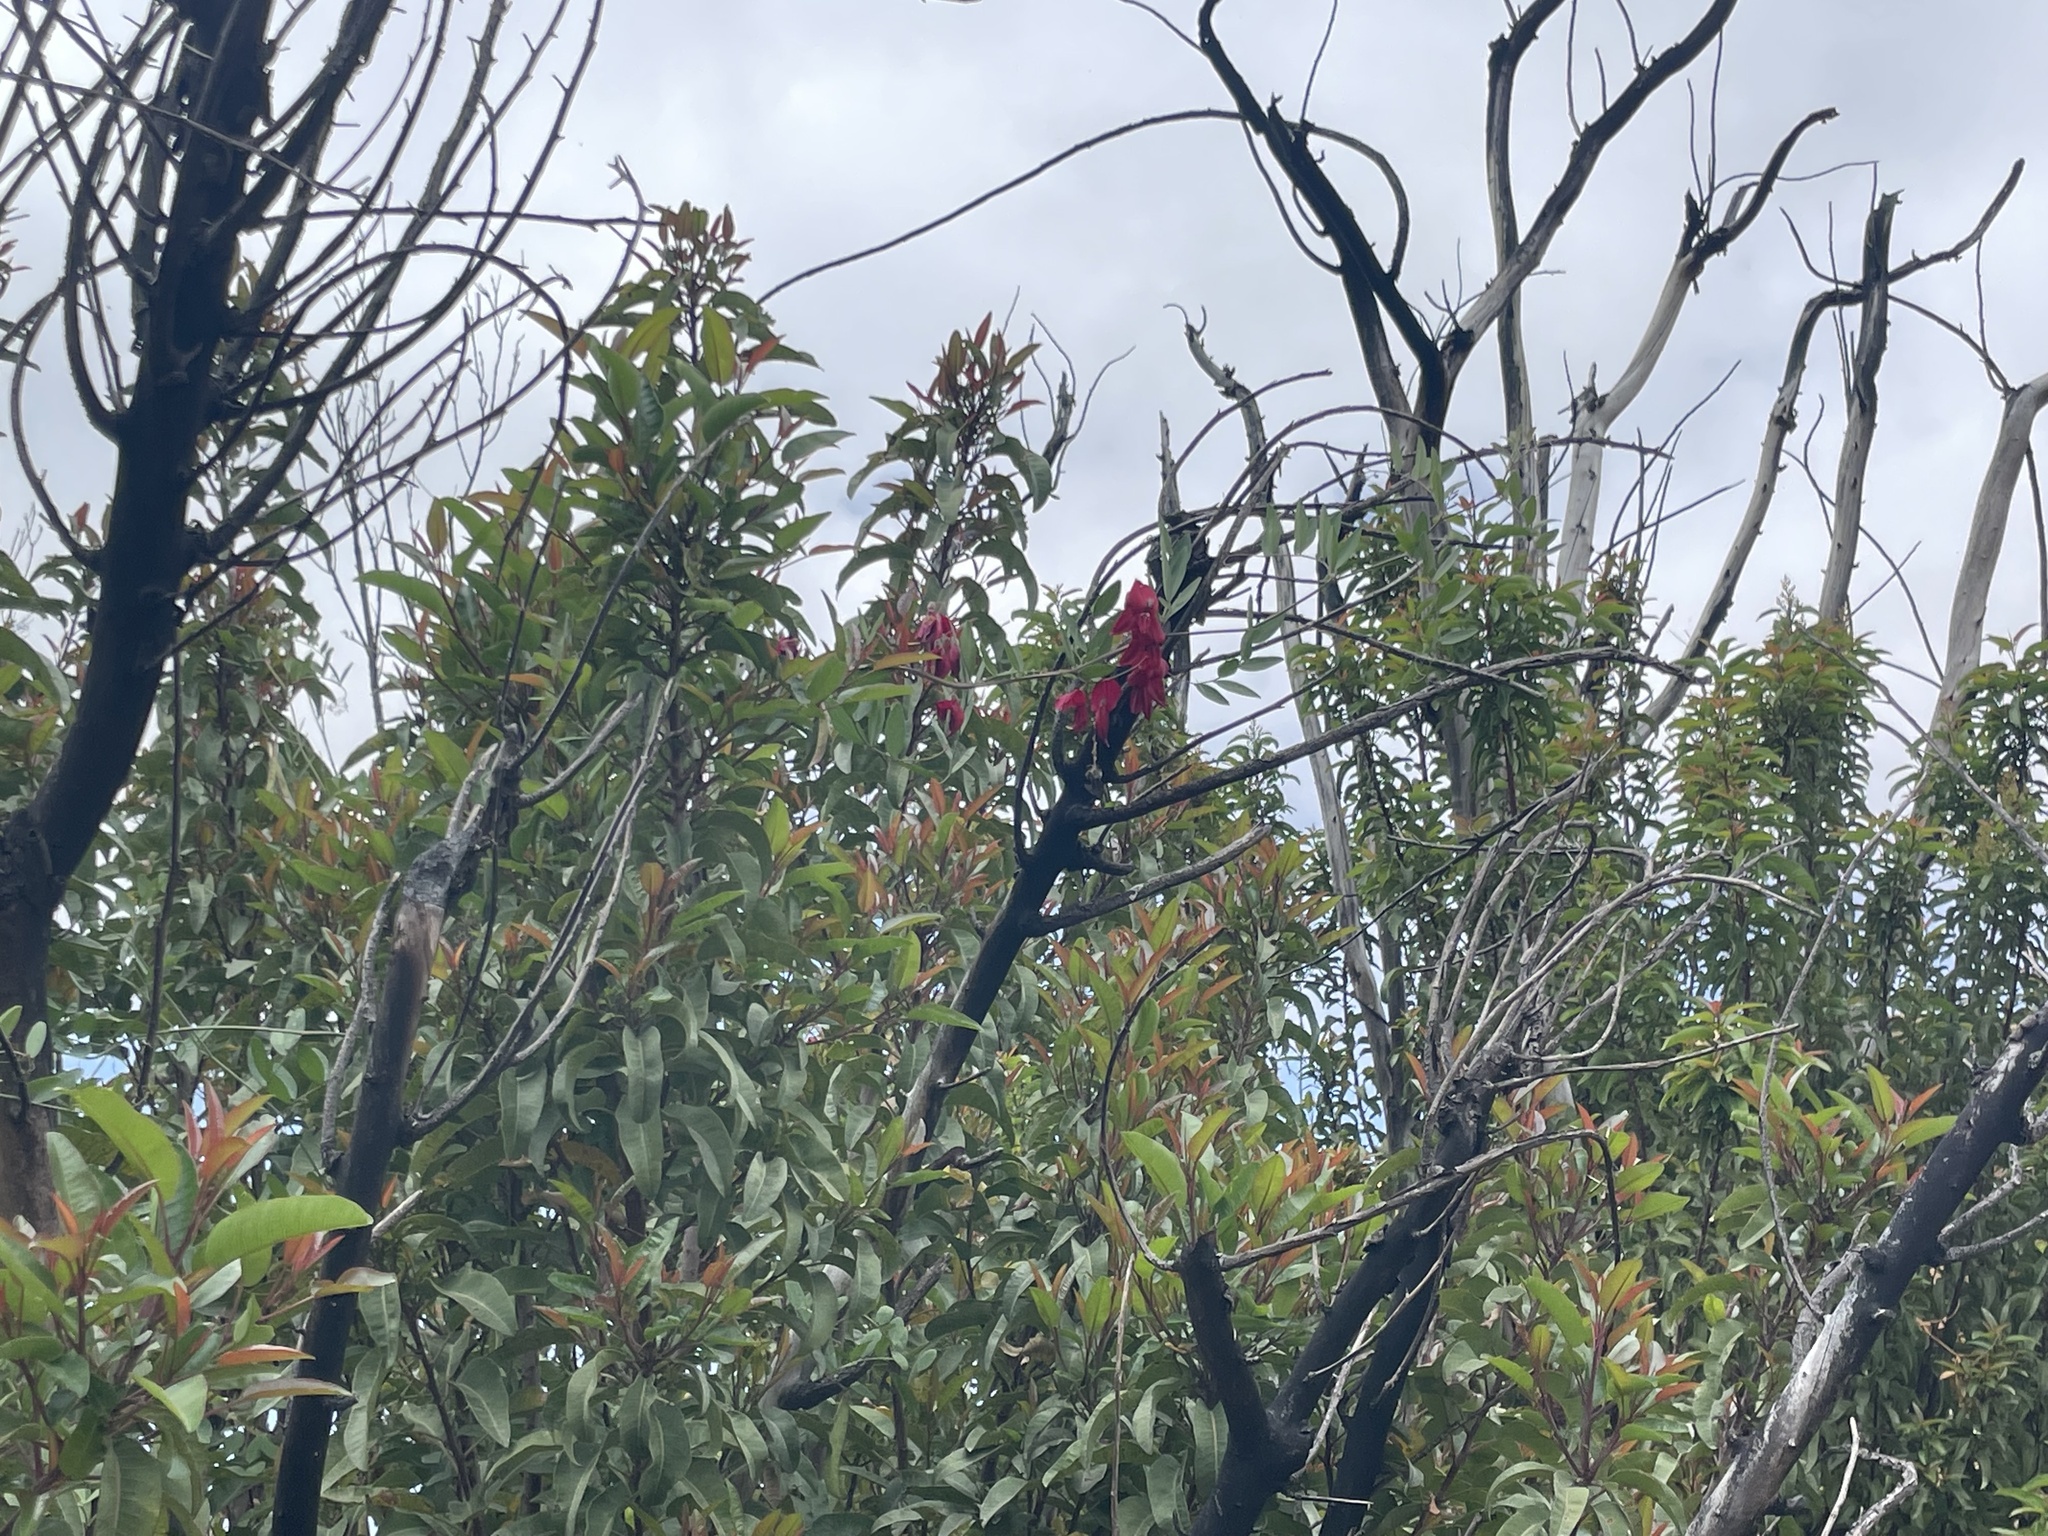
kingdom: Plantae
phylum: Tracheophyta
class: Magnoliopsida
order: Fabales
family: Fabaceae
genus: Lathyrus
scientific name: Lathyrus splendens
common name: Campo-pea
